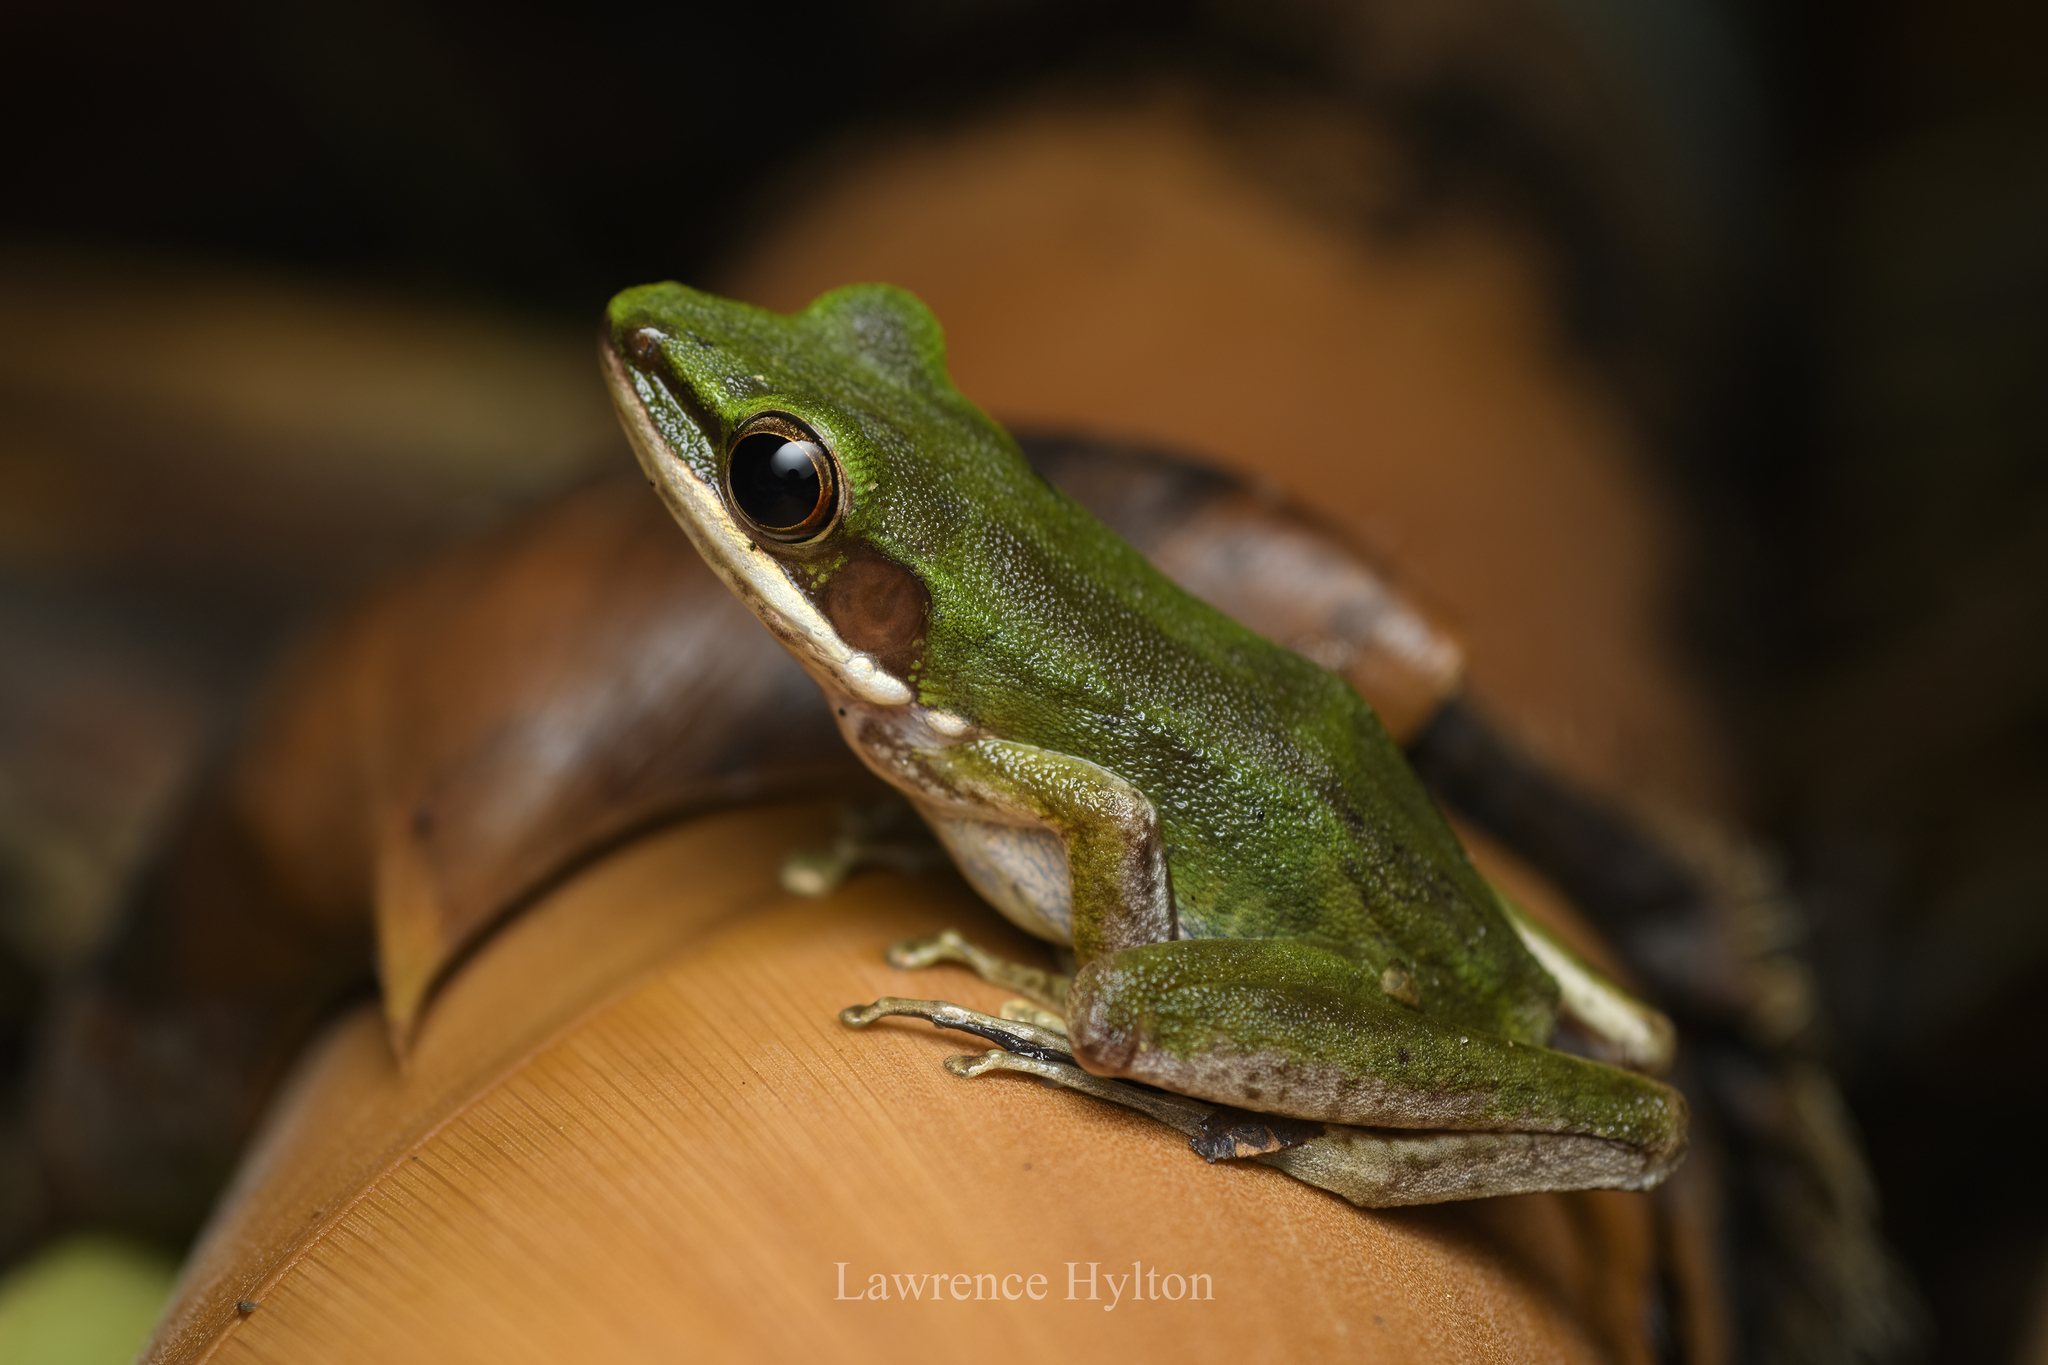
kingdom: Animalia
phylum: Chordata
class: Amphibia
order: Anura
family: Ranidae
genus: Chalcorana
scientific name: Chalcorana eschatia
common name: Tenasserim white-lipped frog
